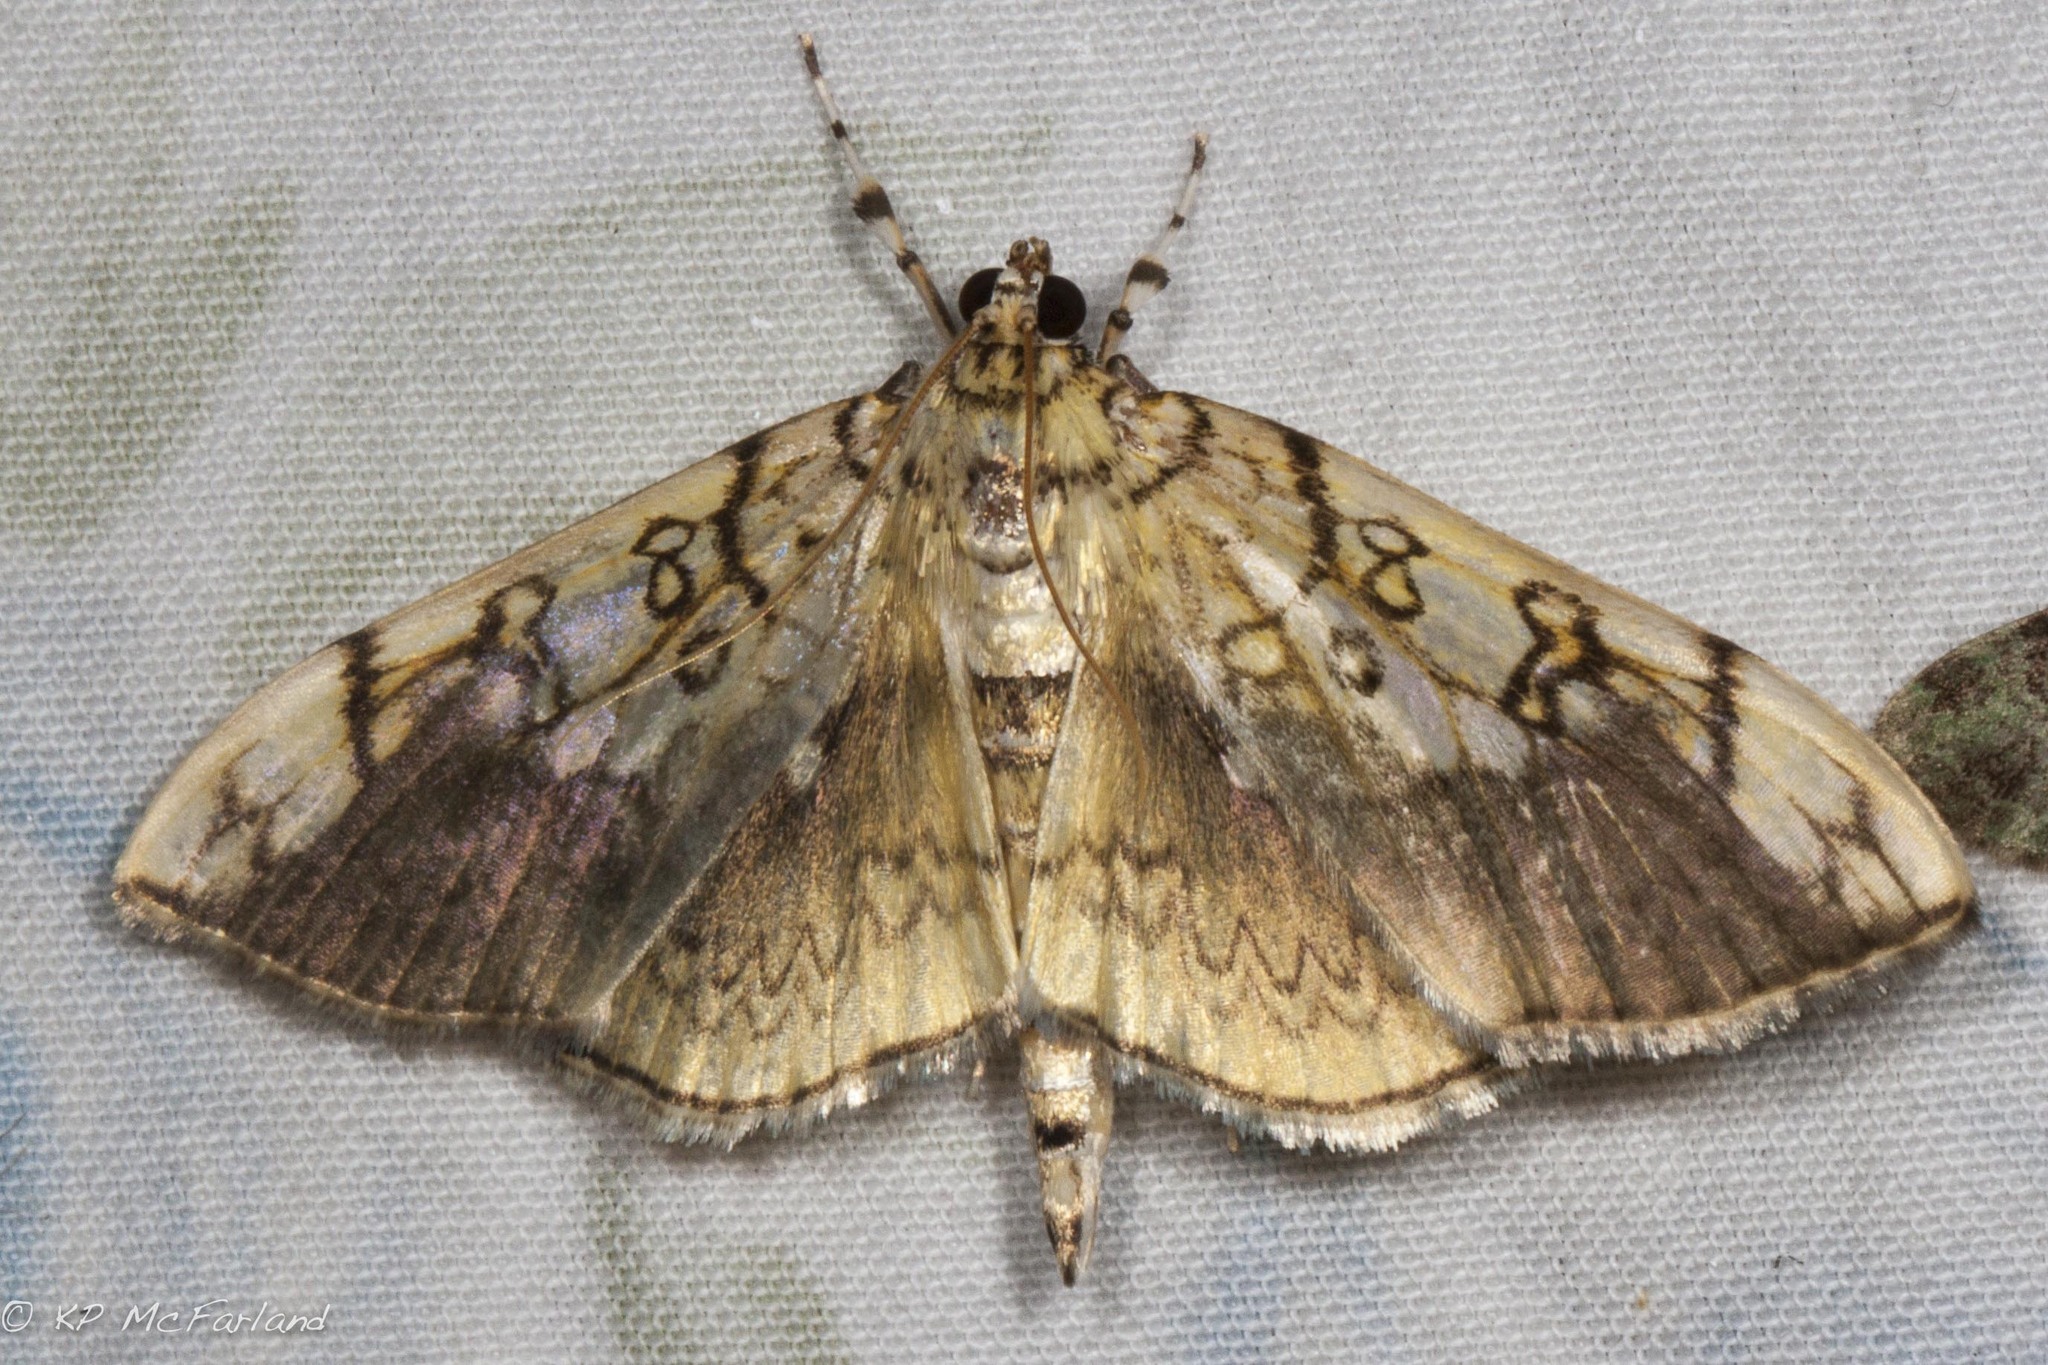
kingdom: Animalia
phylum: Arthropoda
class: Insecta
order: Lepidoptera
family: Crambidae
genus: Pantographa
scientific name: Pantographa limata
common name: Basswood leafroller moth
